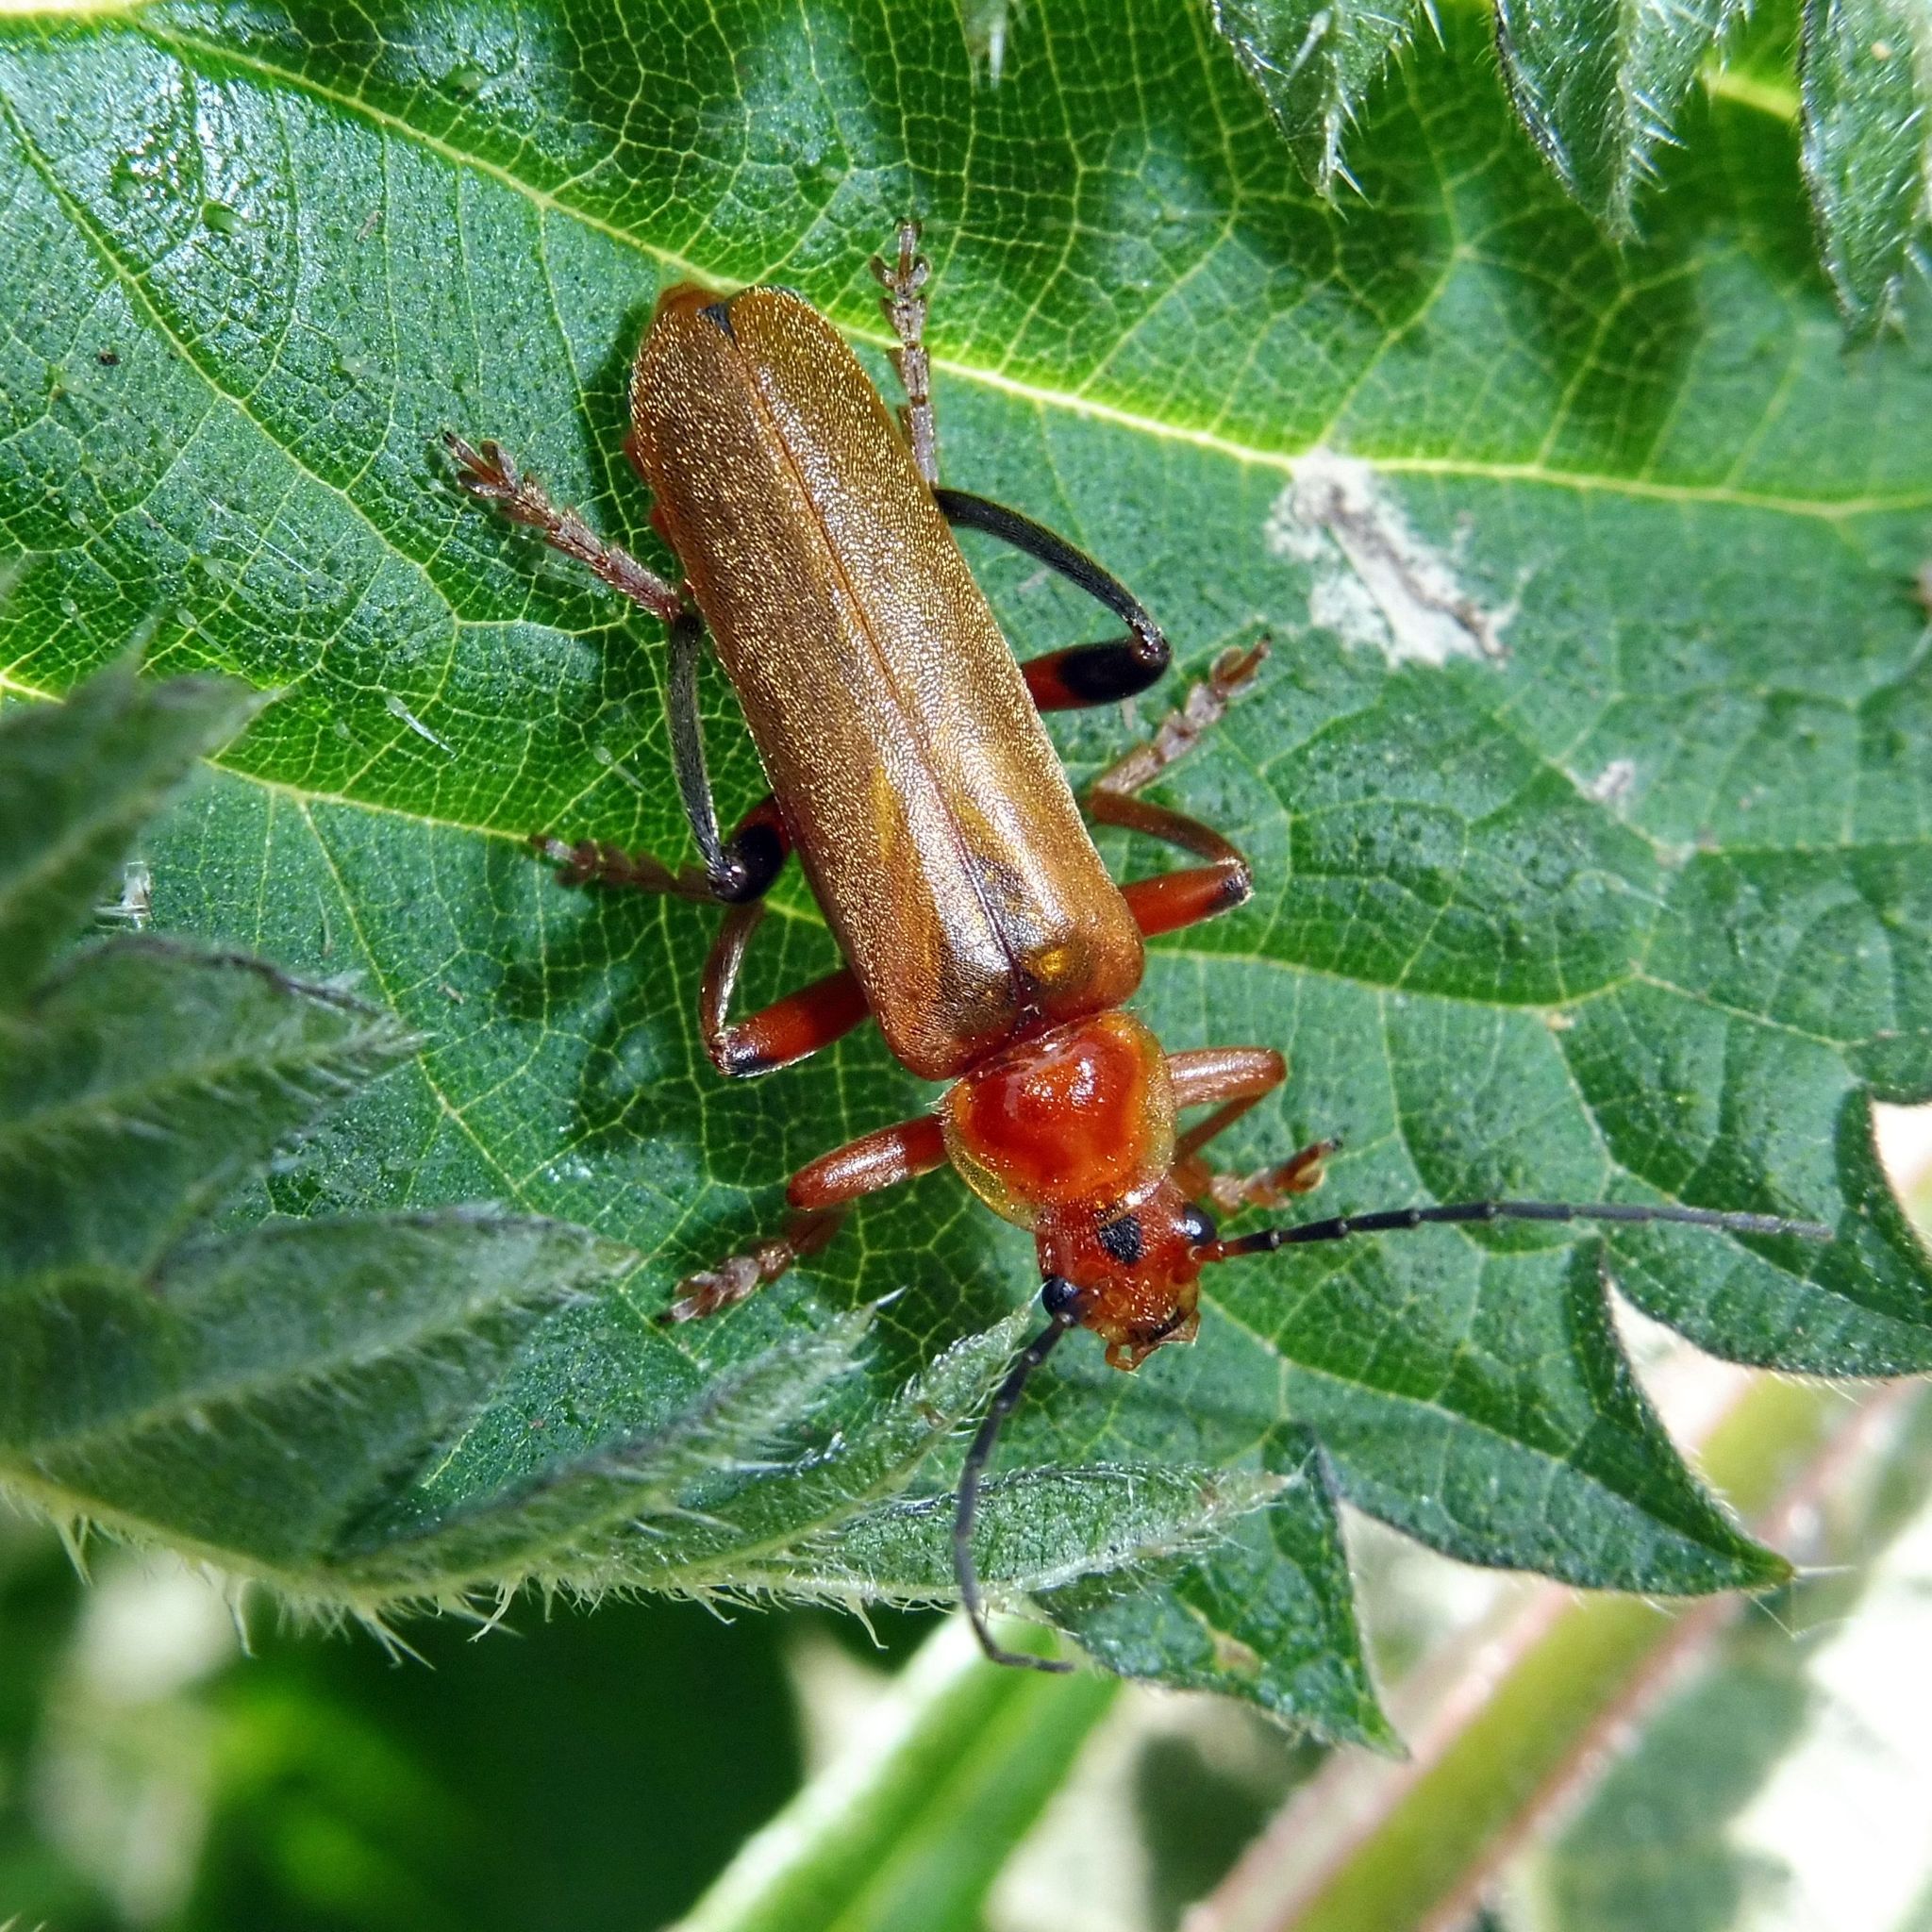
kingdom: Animalia
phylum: Arthropoda
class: Insecta
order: Coleoptera
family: Cantharidae
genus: Cantharis
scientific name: Cantharis livida
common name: Livid soldier beetle
